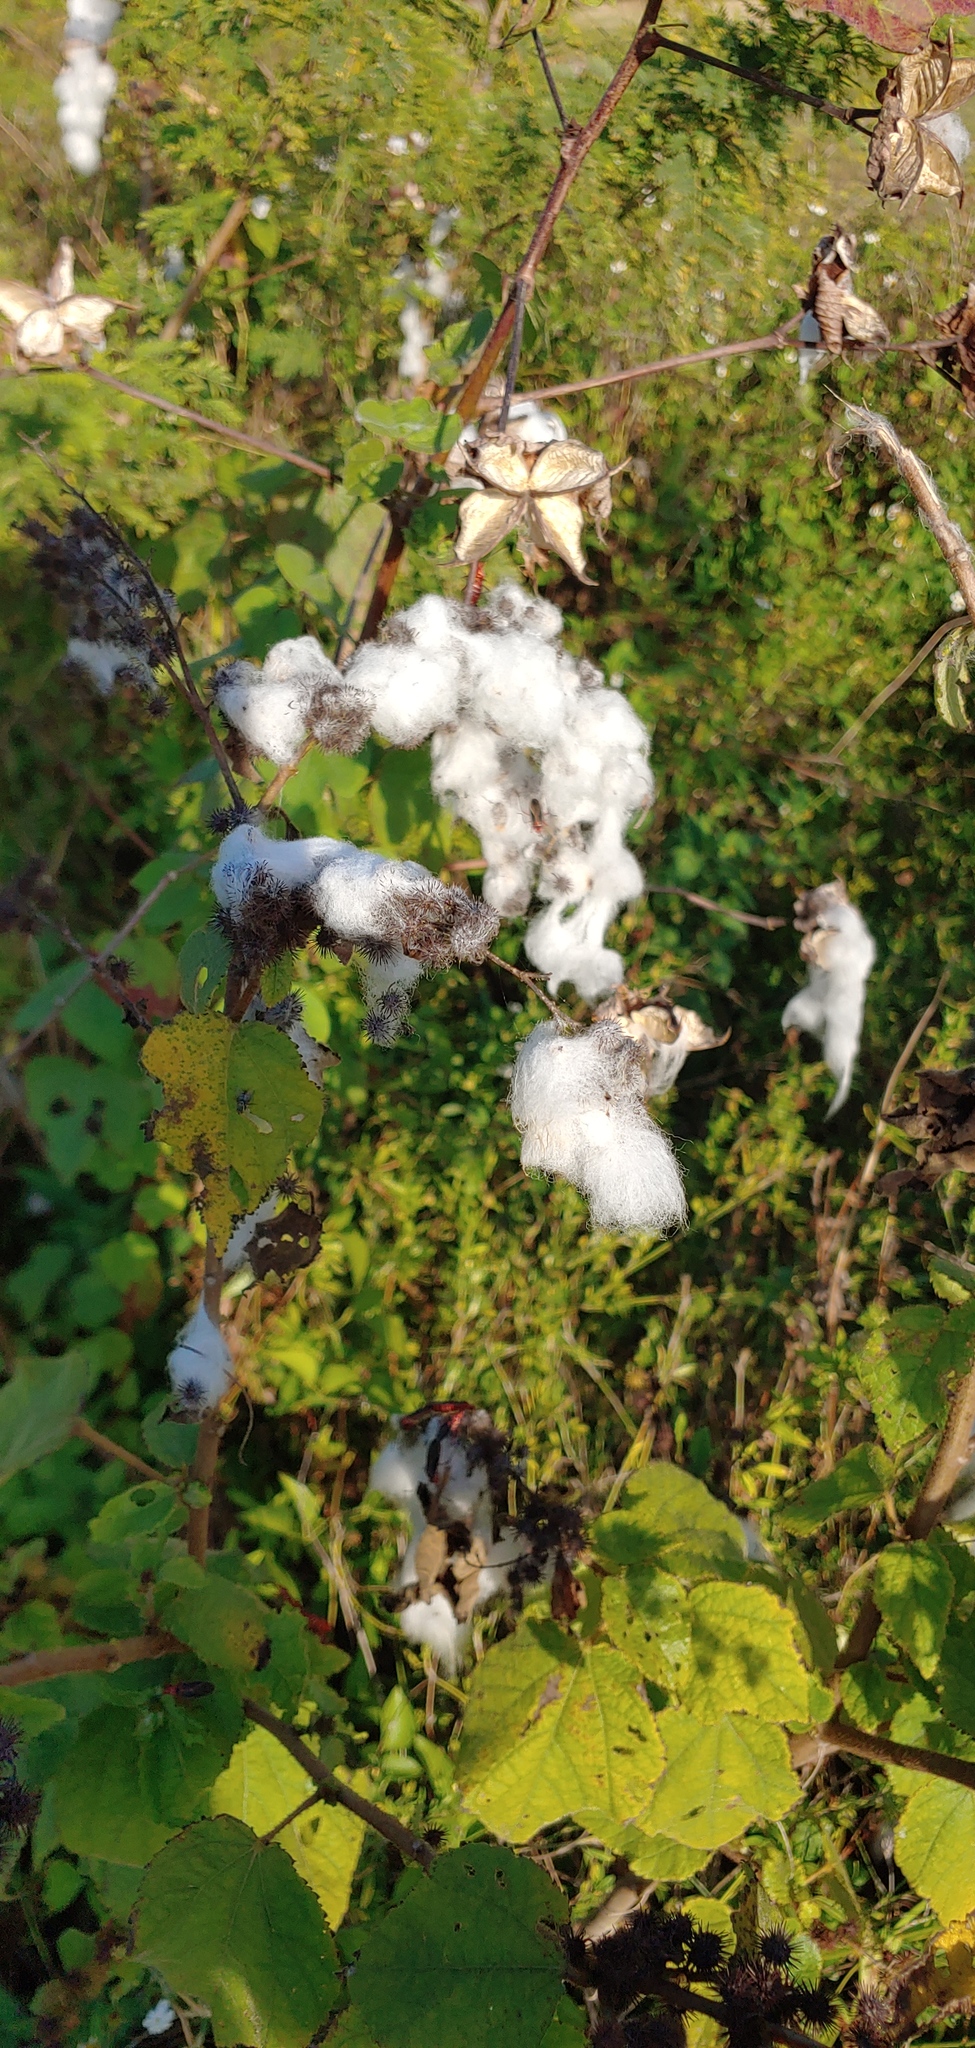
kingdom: Plantae
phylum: Tracheophyta
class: Magnoliopsida
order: Malvales
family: Malvaceae
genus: Gossypium
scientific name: Gossypium hirsutum
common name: Cotton
